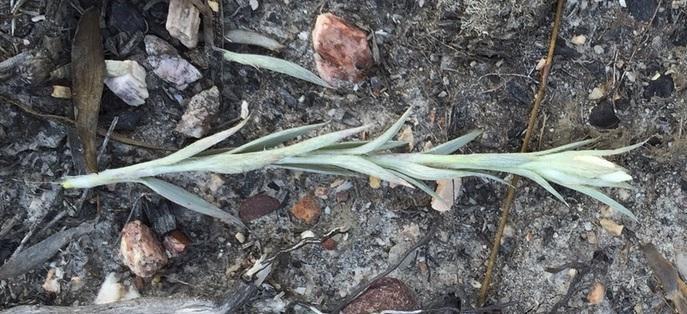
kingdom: Plantae
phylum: Tracheophyta
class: Magnoliopsida
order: Asterales
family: Asteraceae
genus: Achyranthemum
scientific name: Achyranthemum paniculatum
